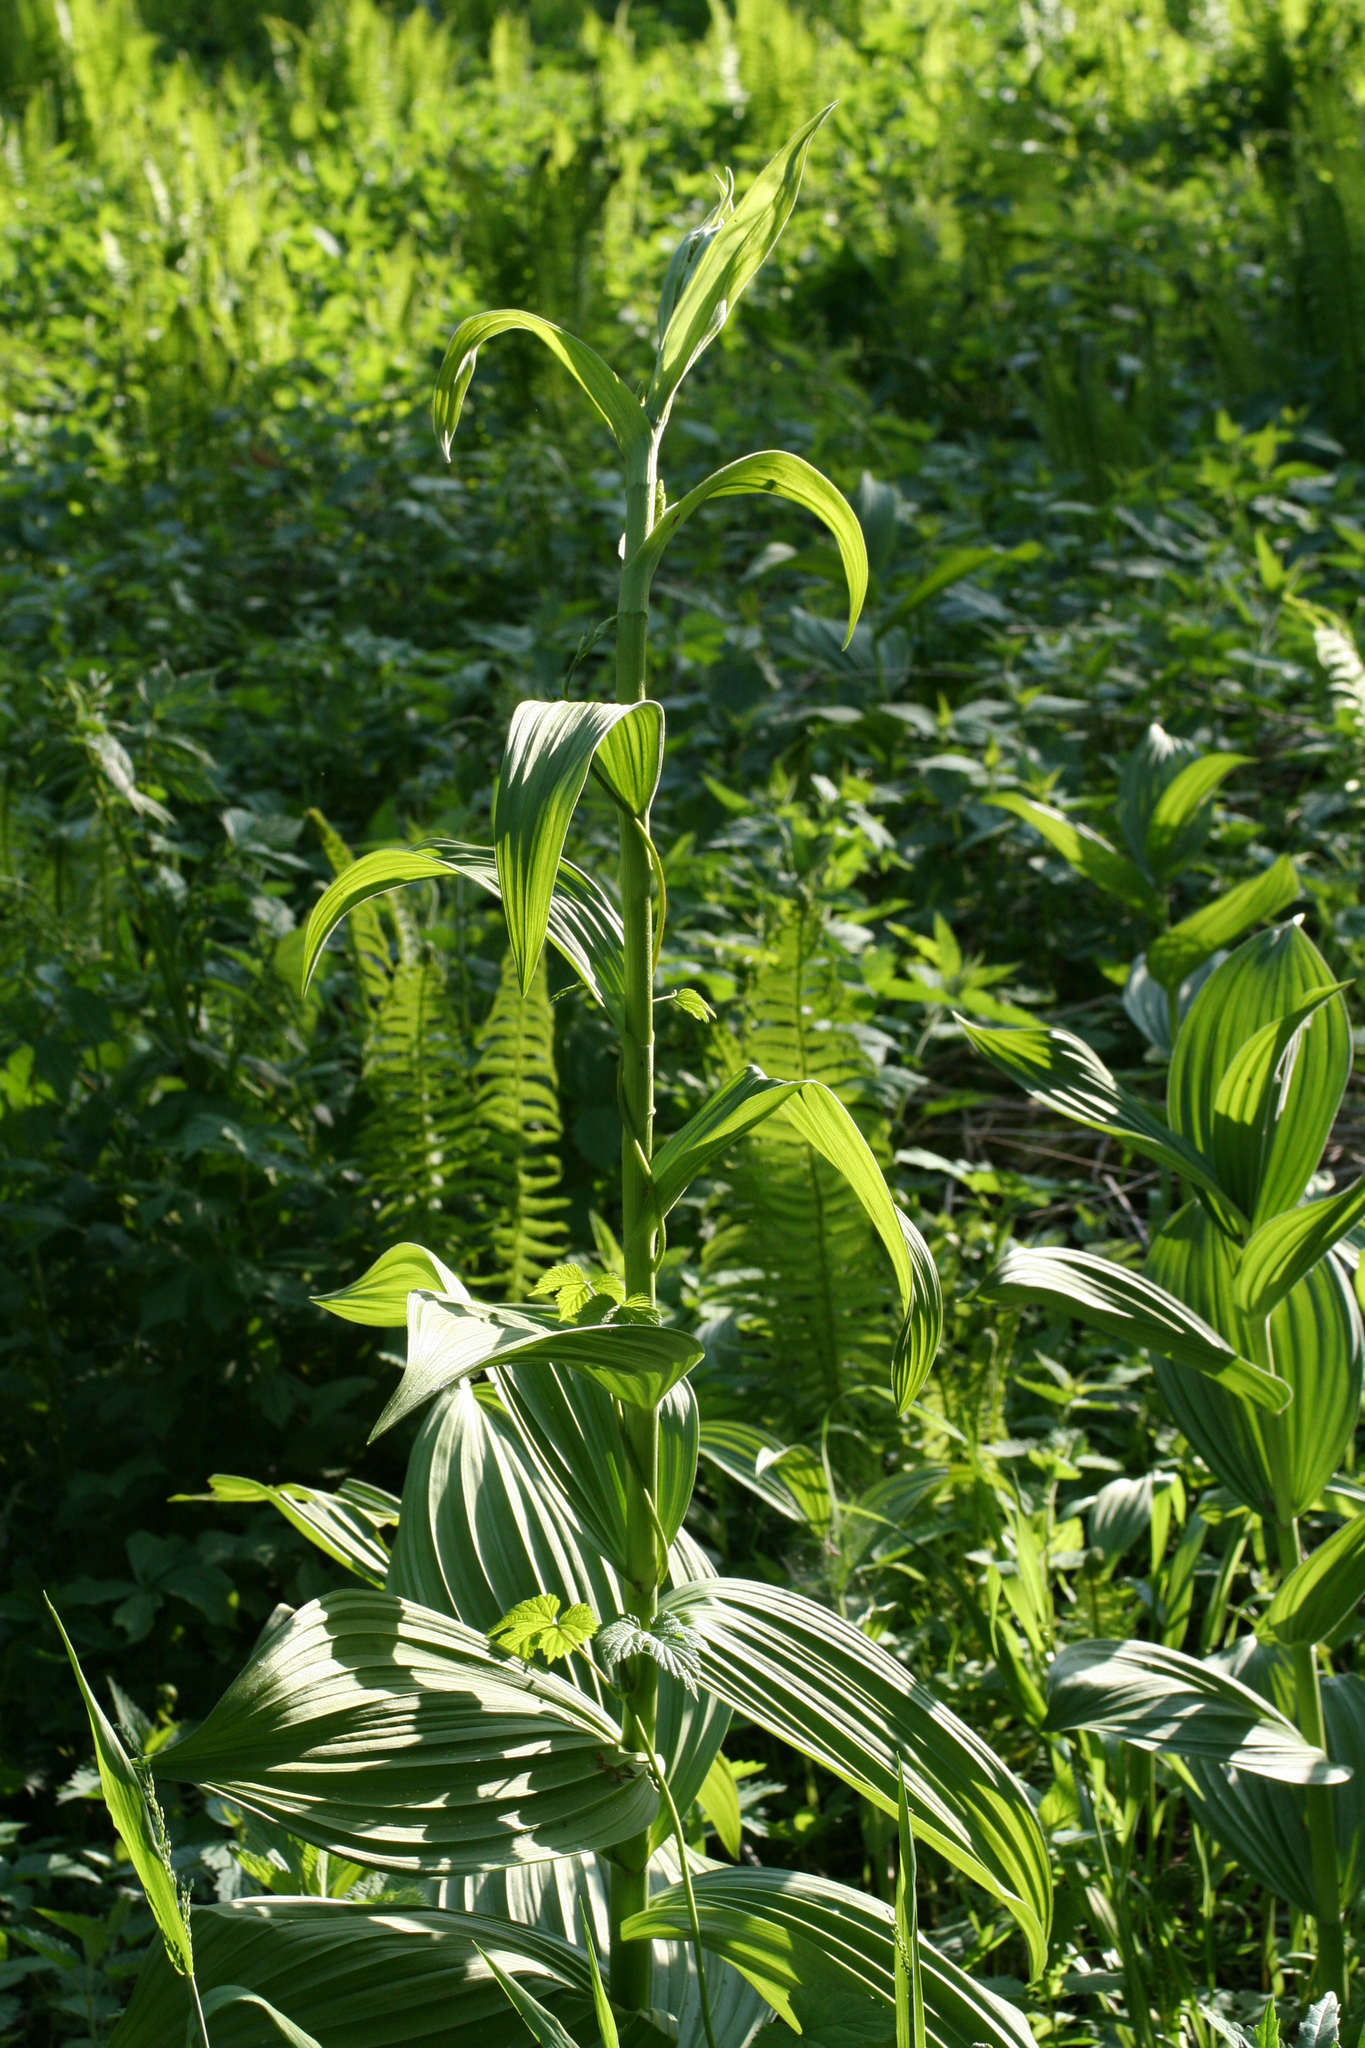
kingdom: Plantae
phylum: Tracheophyta
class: Liliopsida
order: Liliales
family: Melanthiaceae
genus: Veratrum
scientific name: Veratrum lobelianum
